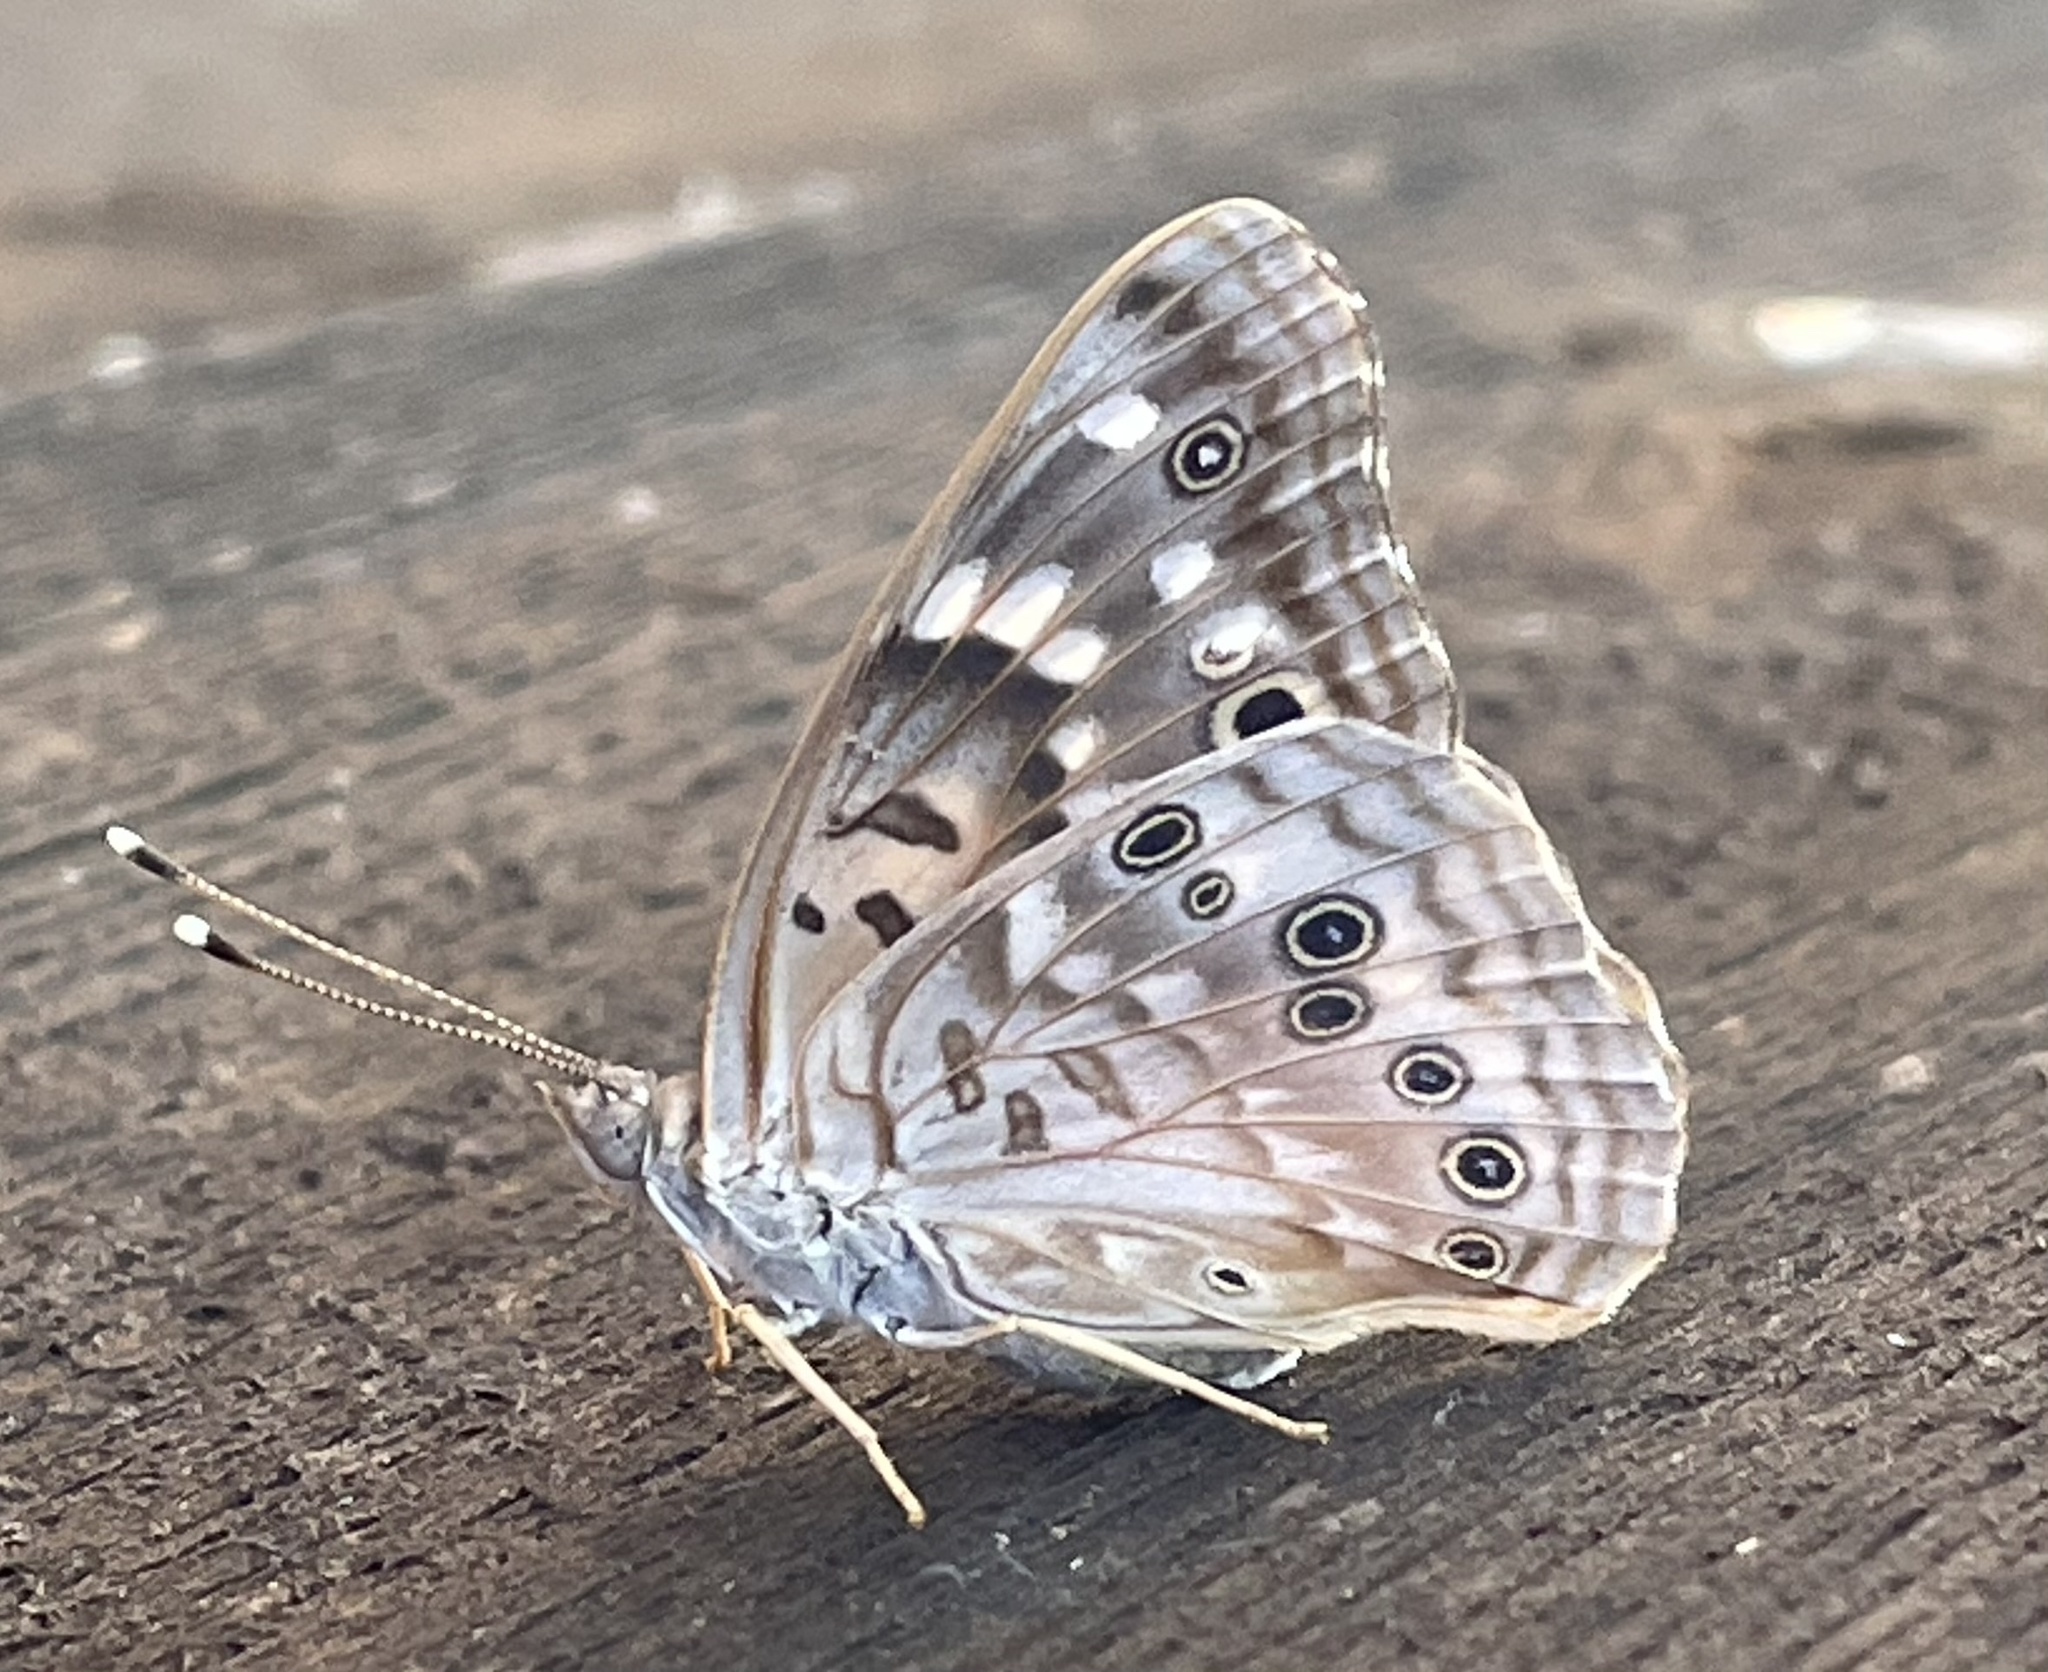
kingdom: Animalia
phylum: Arthropoda
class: Insecta
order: Lepidoptera
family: Nymphalidae
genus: Asterocampa
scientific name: Asterocampa celtis
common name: Hackberry emperor
